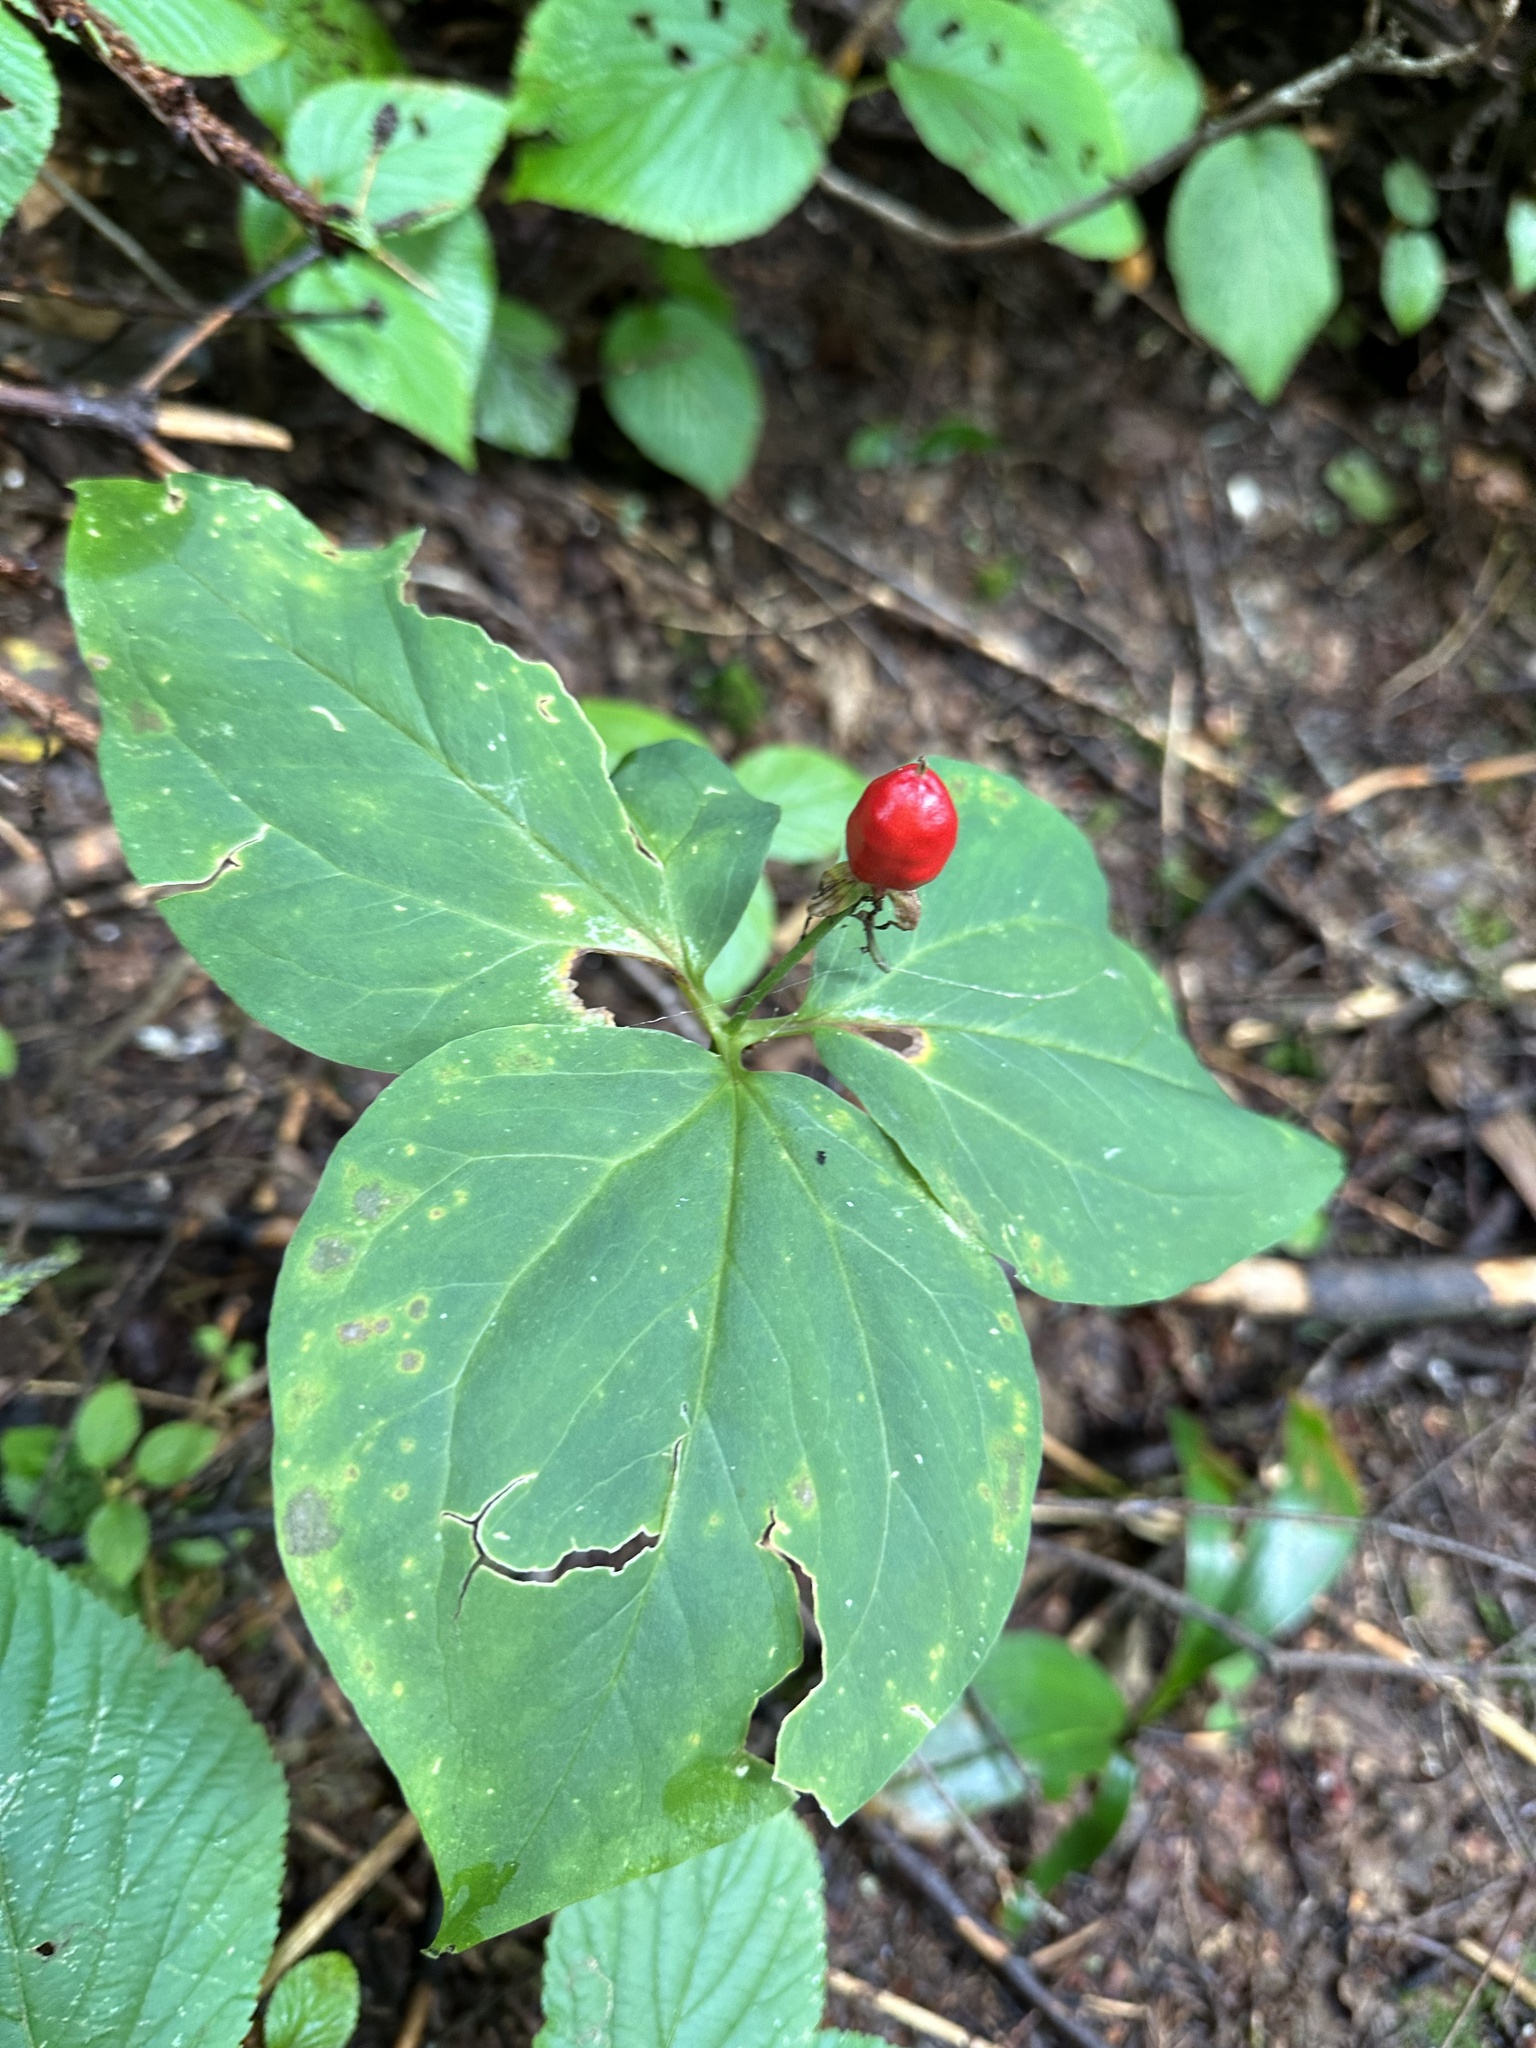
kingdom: Plantae
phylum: Tracheophyta
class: Liliopsida
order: Liliales
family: Melanthiaceae
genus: Trillium
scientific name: Trillium undulatum
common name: Paint trillium
